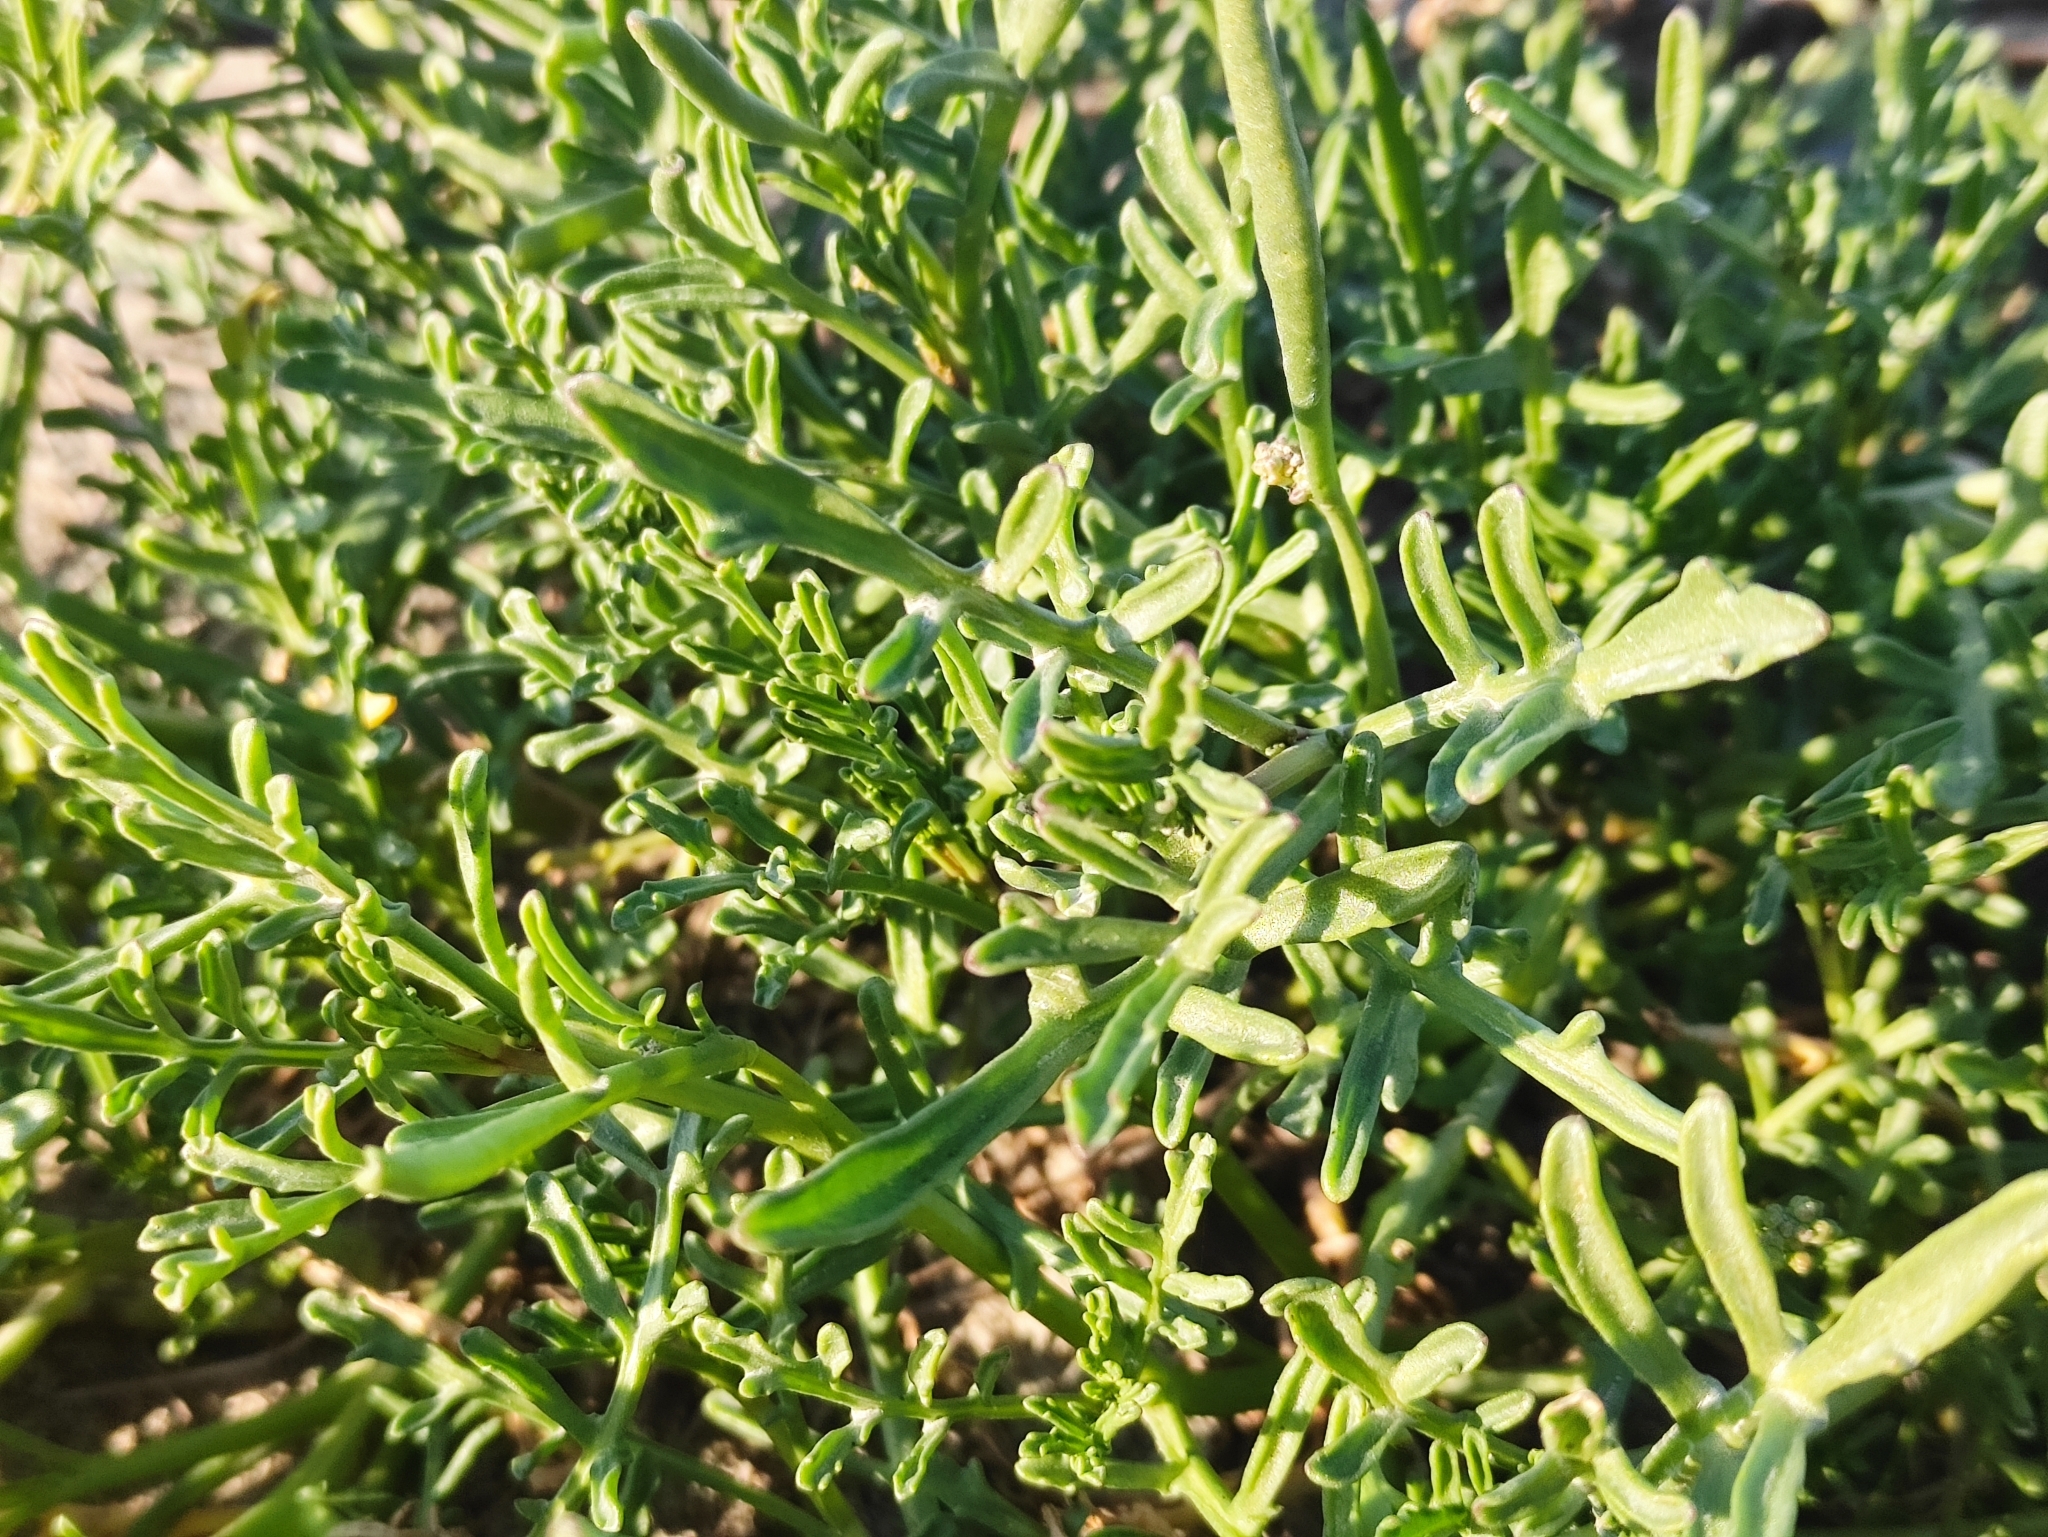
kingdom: Plantae
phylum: Tracheophyta
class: Magnoliopsida
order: Brassicales
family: Brassicaceae
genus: Cakile
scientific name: Cakile maritima
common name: Sea rocket
